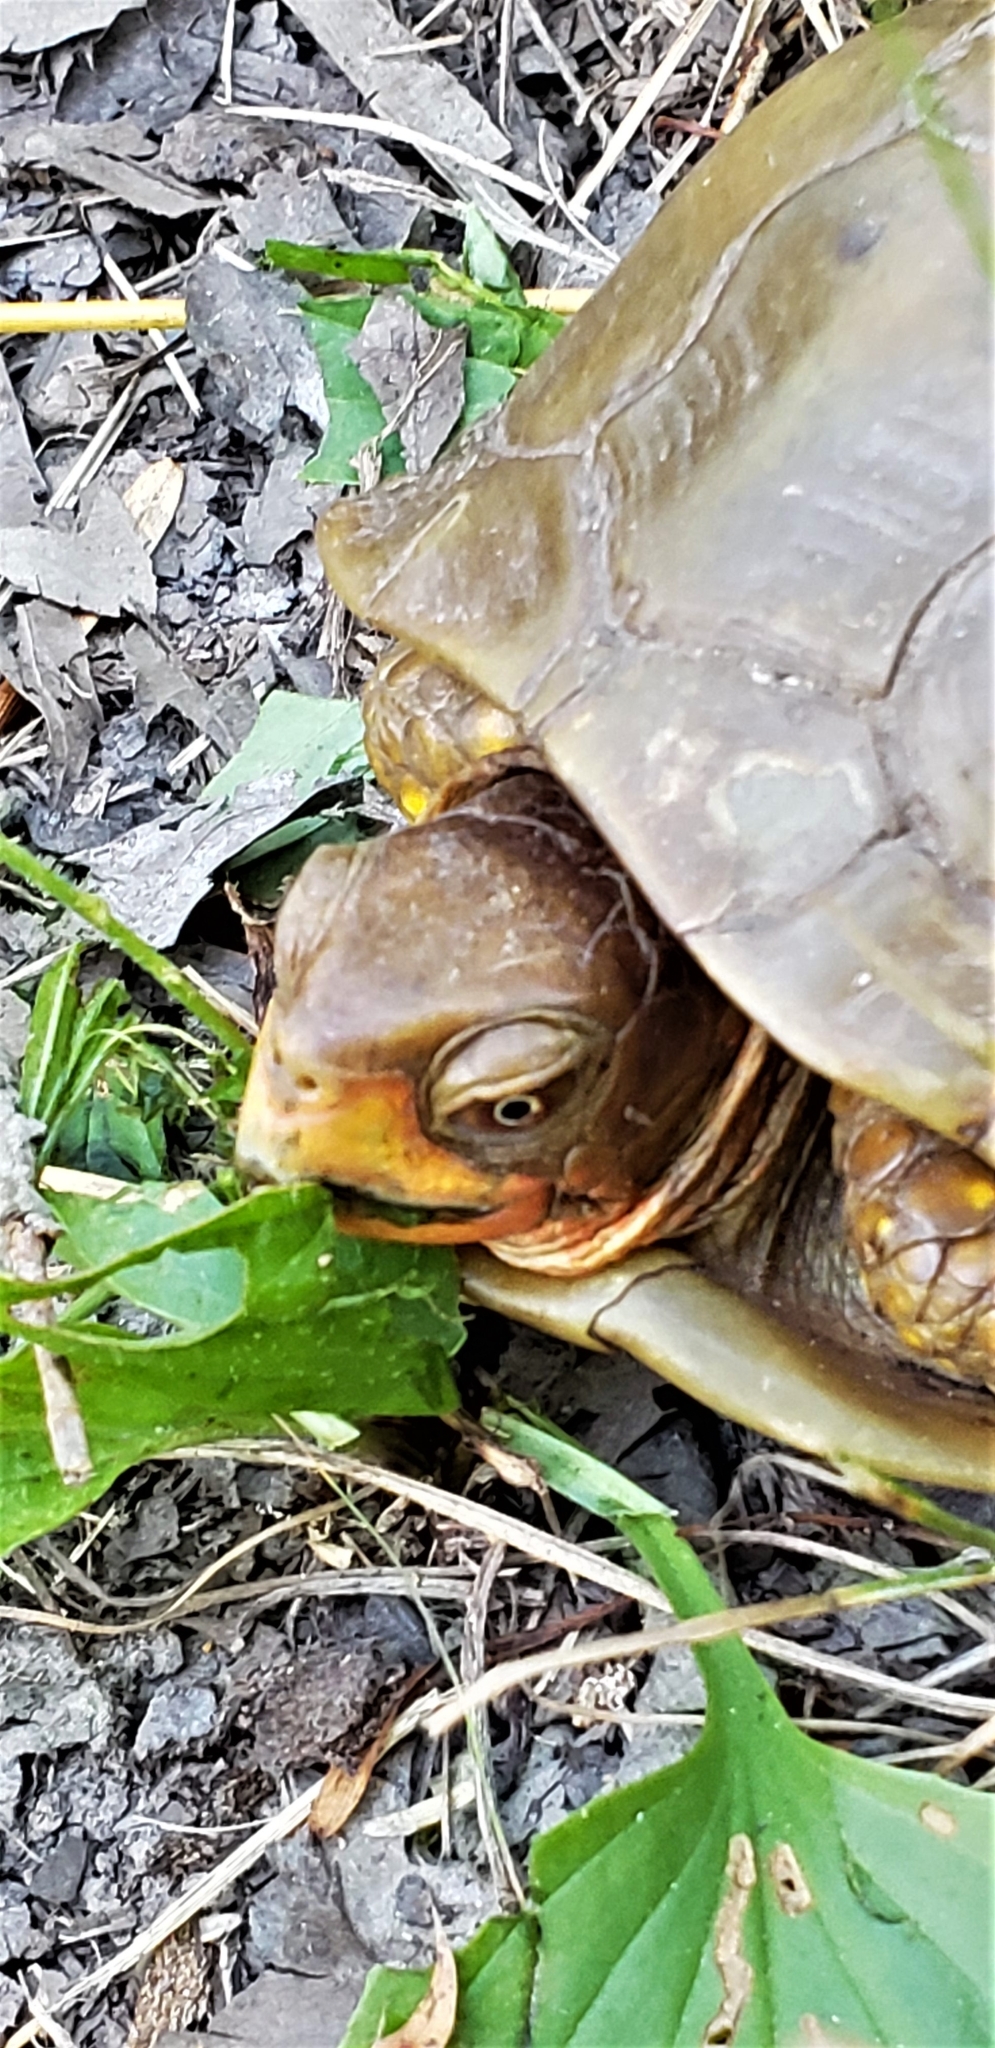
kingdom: Animalia
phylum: Chordata
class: Testudines
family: Emydidae
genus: Terrapene
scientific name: Terrapene carolina
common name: Common box turtle
